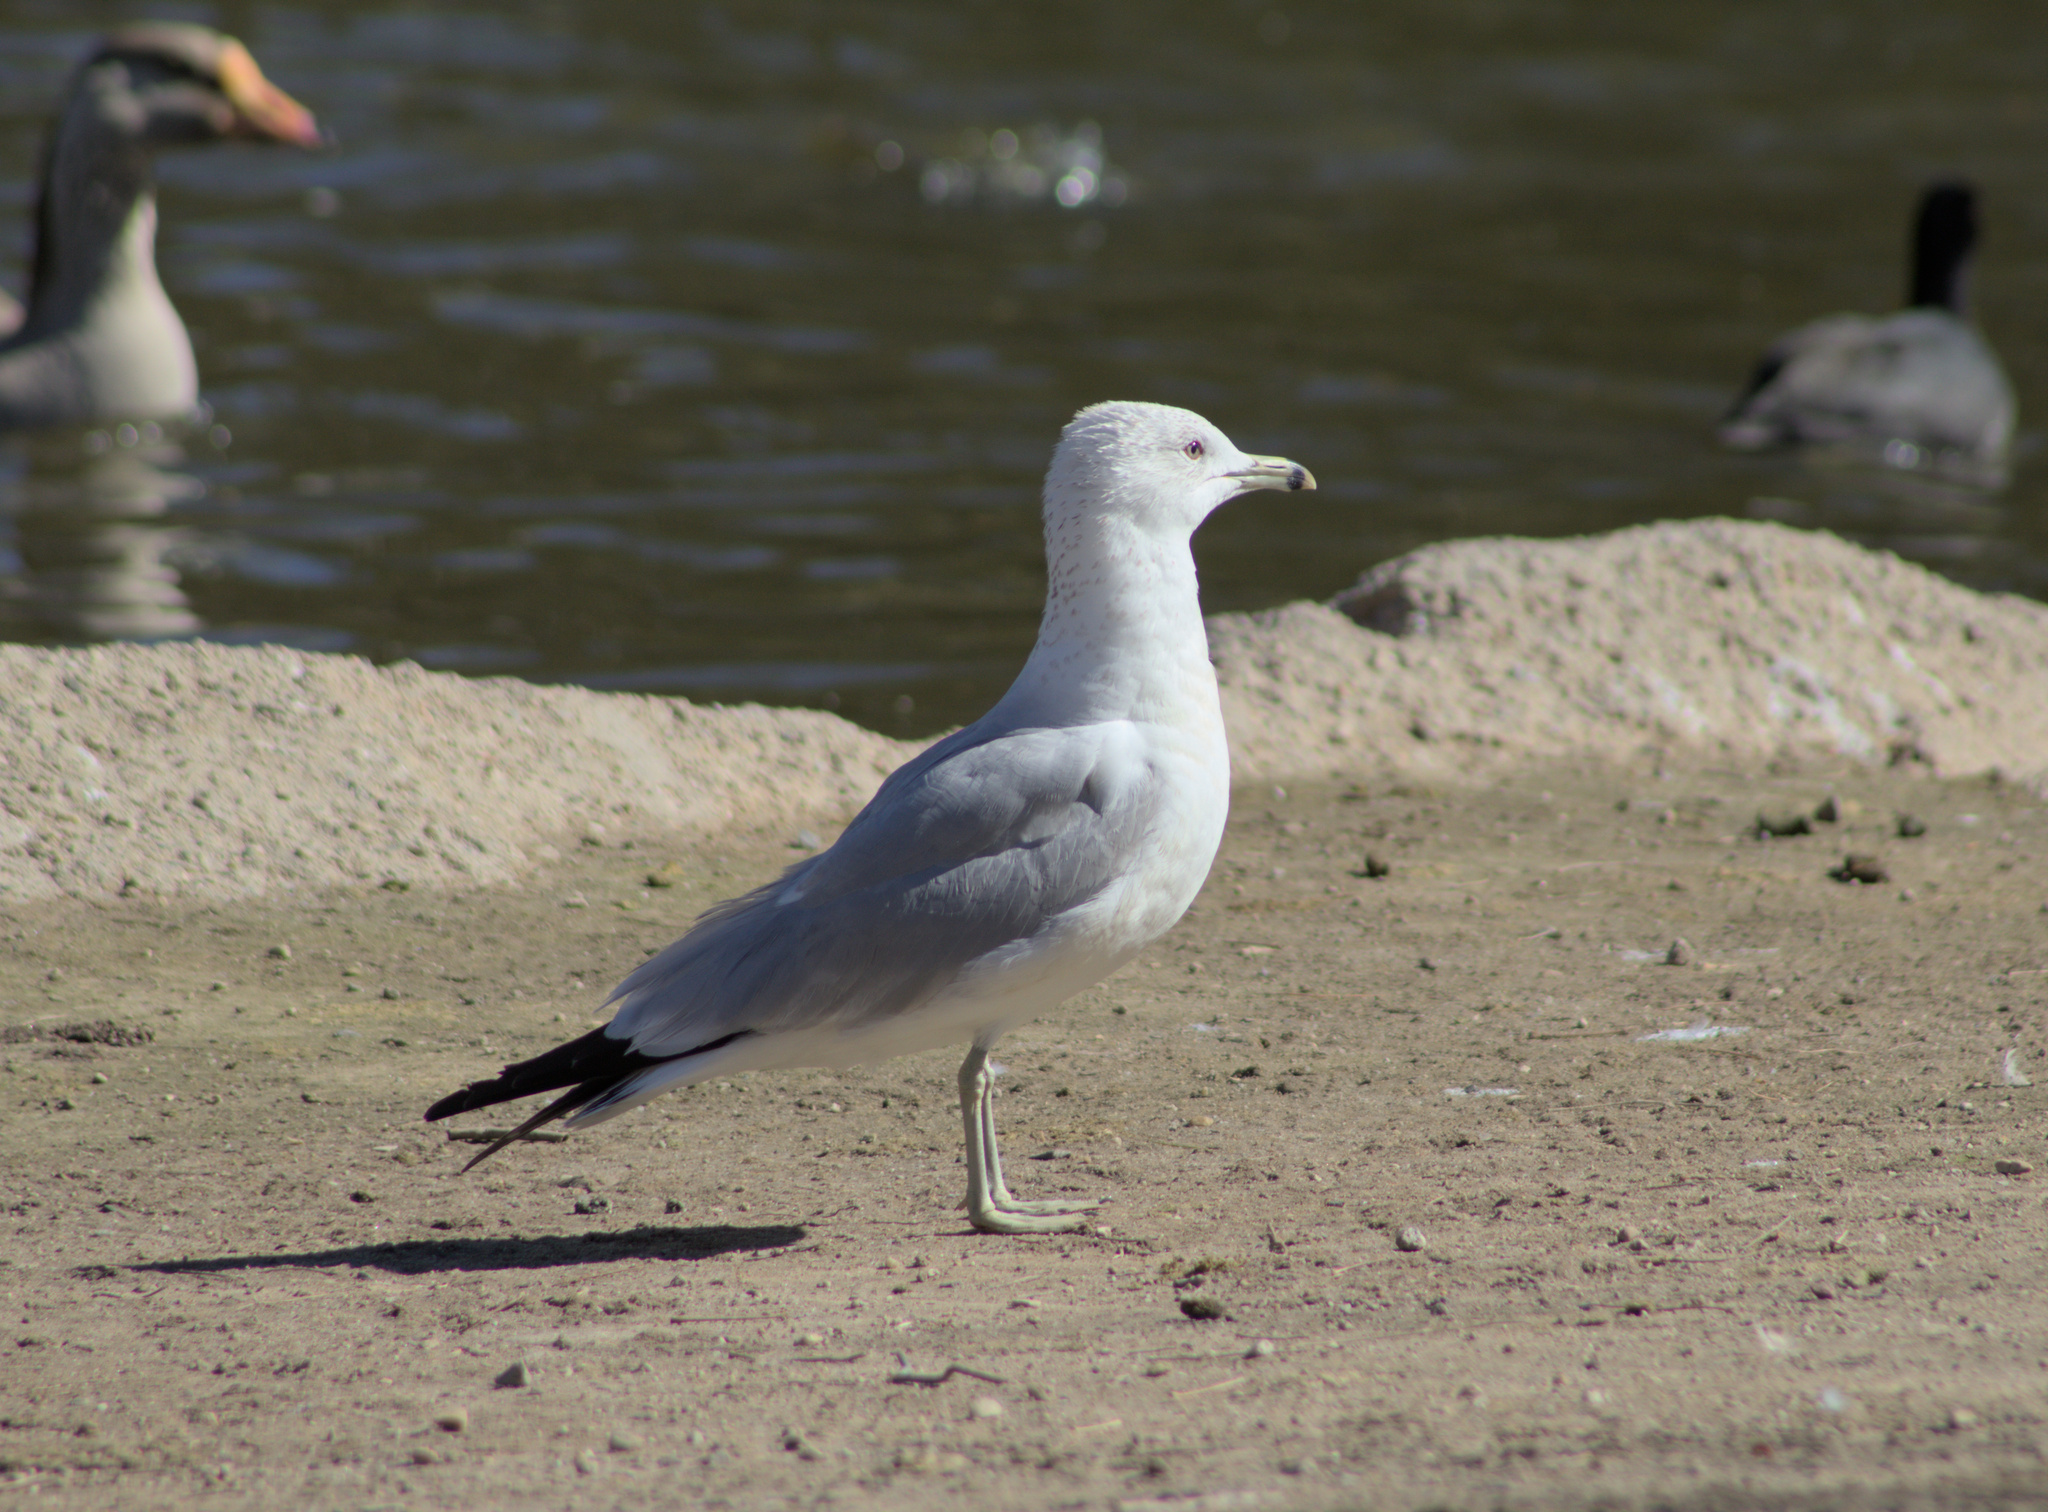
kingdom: Animalia
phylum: Chordata
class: Aves
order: Charadriiformes
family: Laridae
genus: Larus
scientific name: Larus delawarensis
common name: Ring-billed gull
